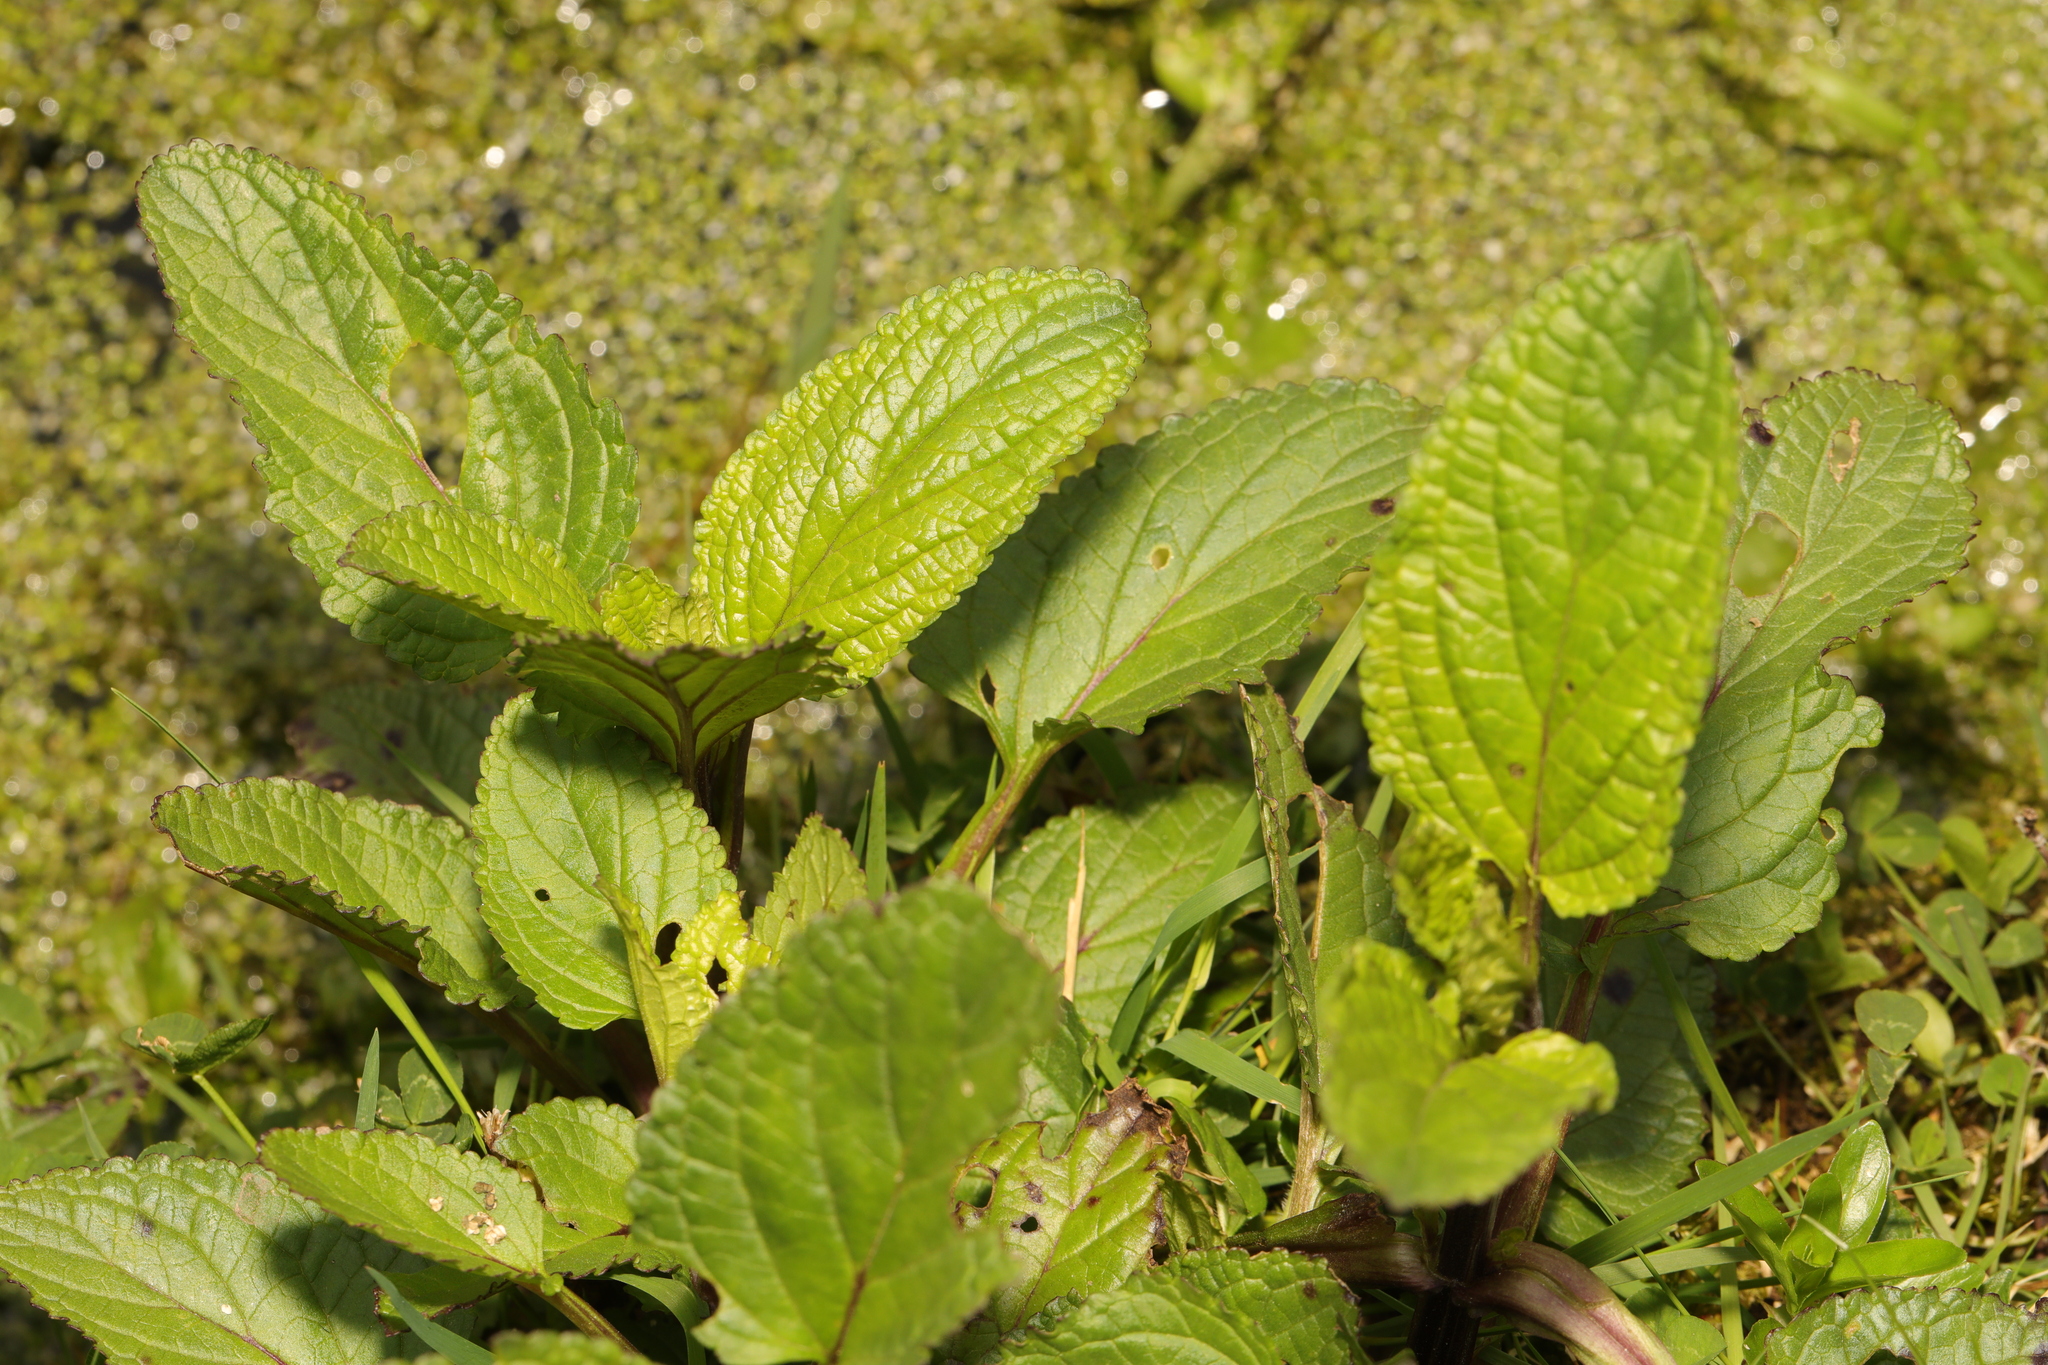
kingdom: Plantae
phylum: Tracheophyta
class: Magnoliopsida
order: Lamiales
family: Scrophulariaceae
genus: Scrophularia
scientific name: Scrophularia auriculata
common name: Water betony
